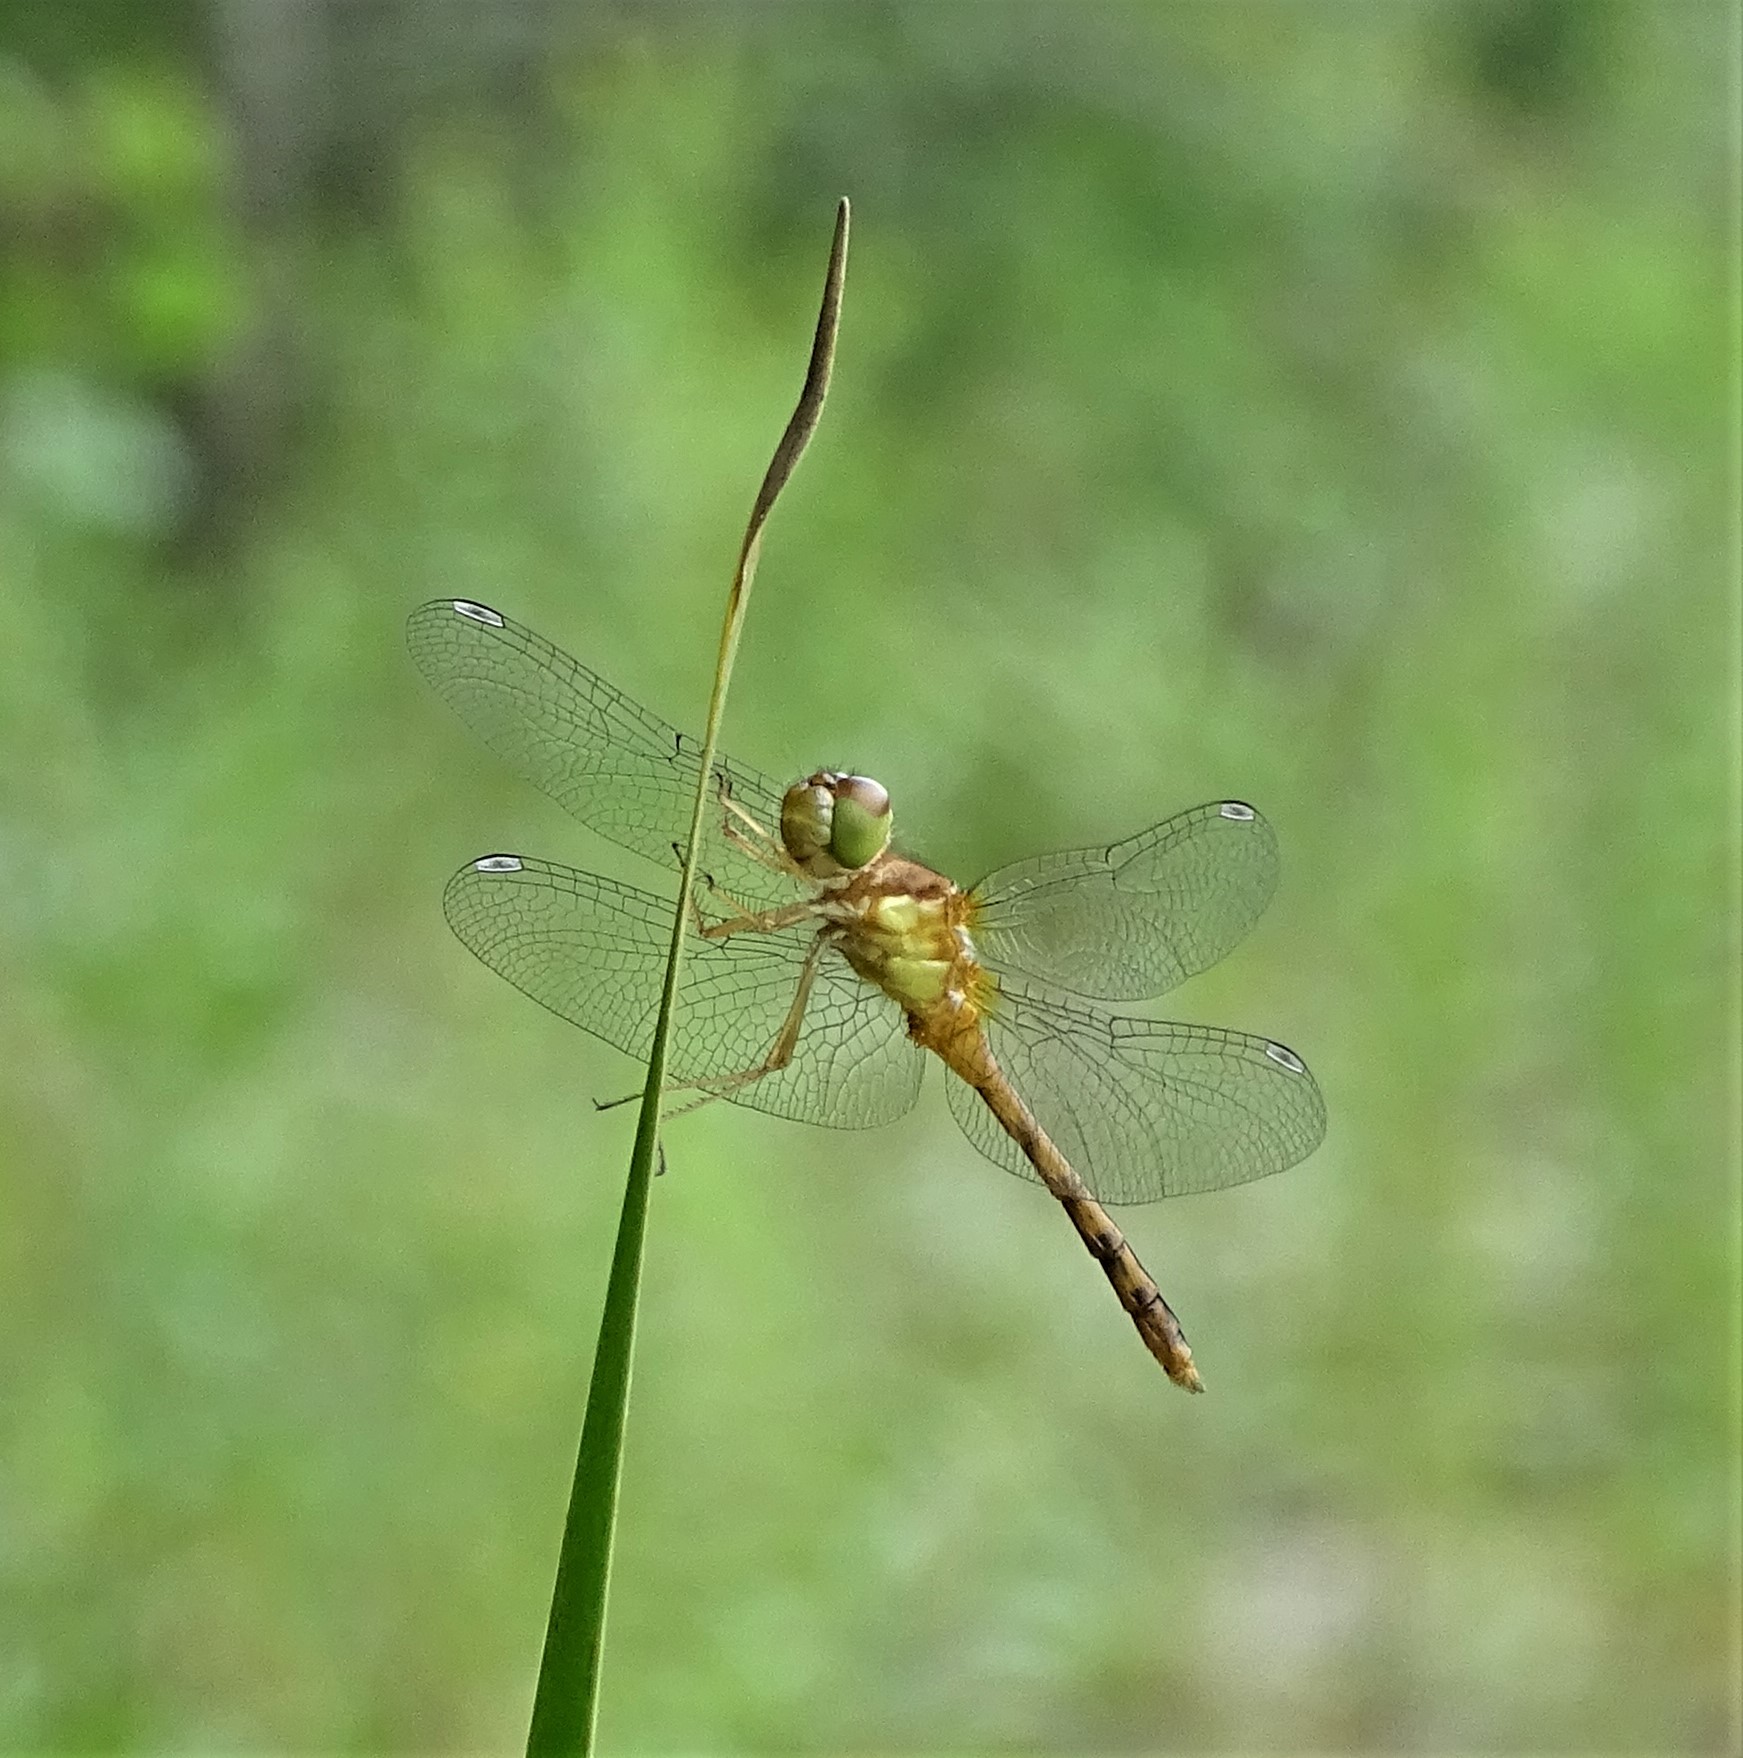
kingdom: Animalia
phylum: Arthropoda
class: Insecta
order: Odonata
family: Libellulidae
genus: Sympetrum
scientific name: Sympetrum vicinum
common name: Autumn meadowhawk
